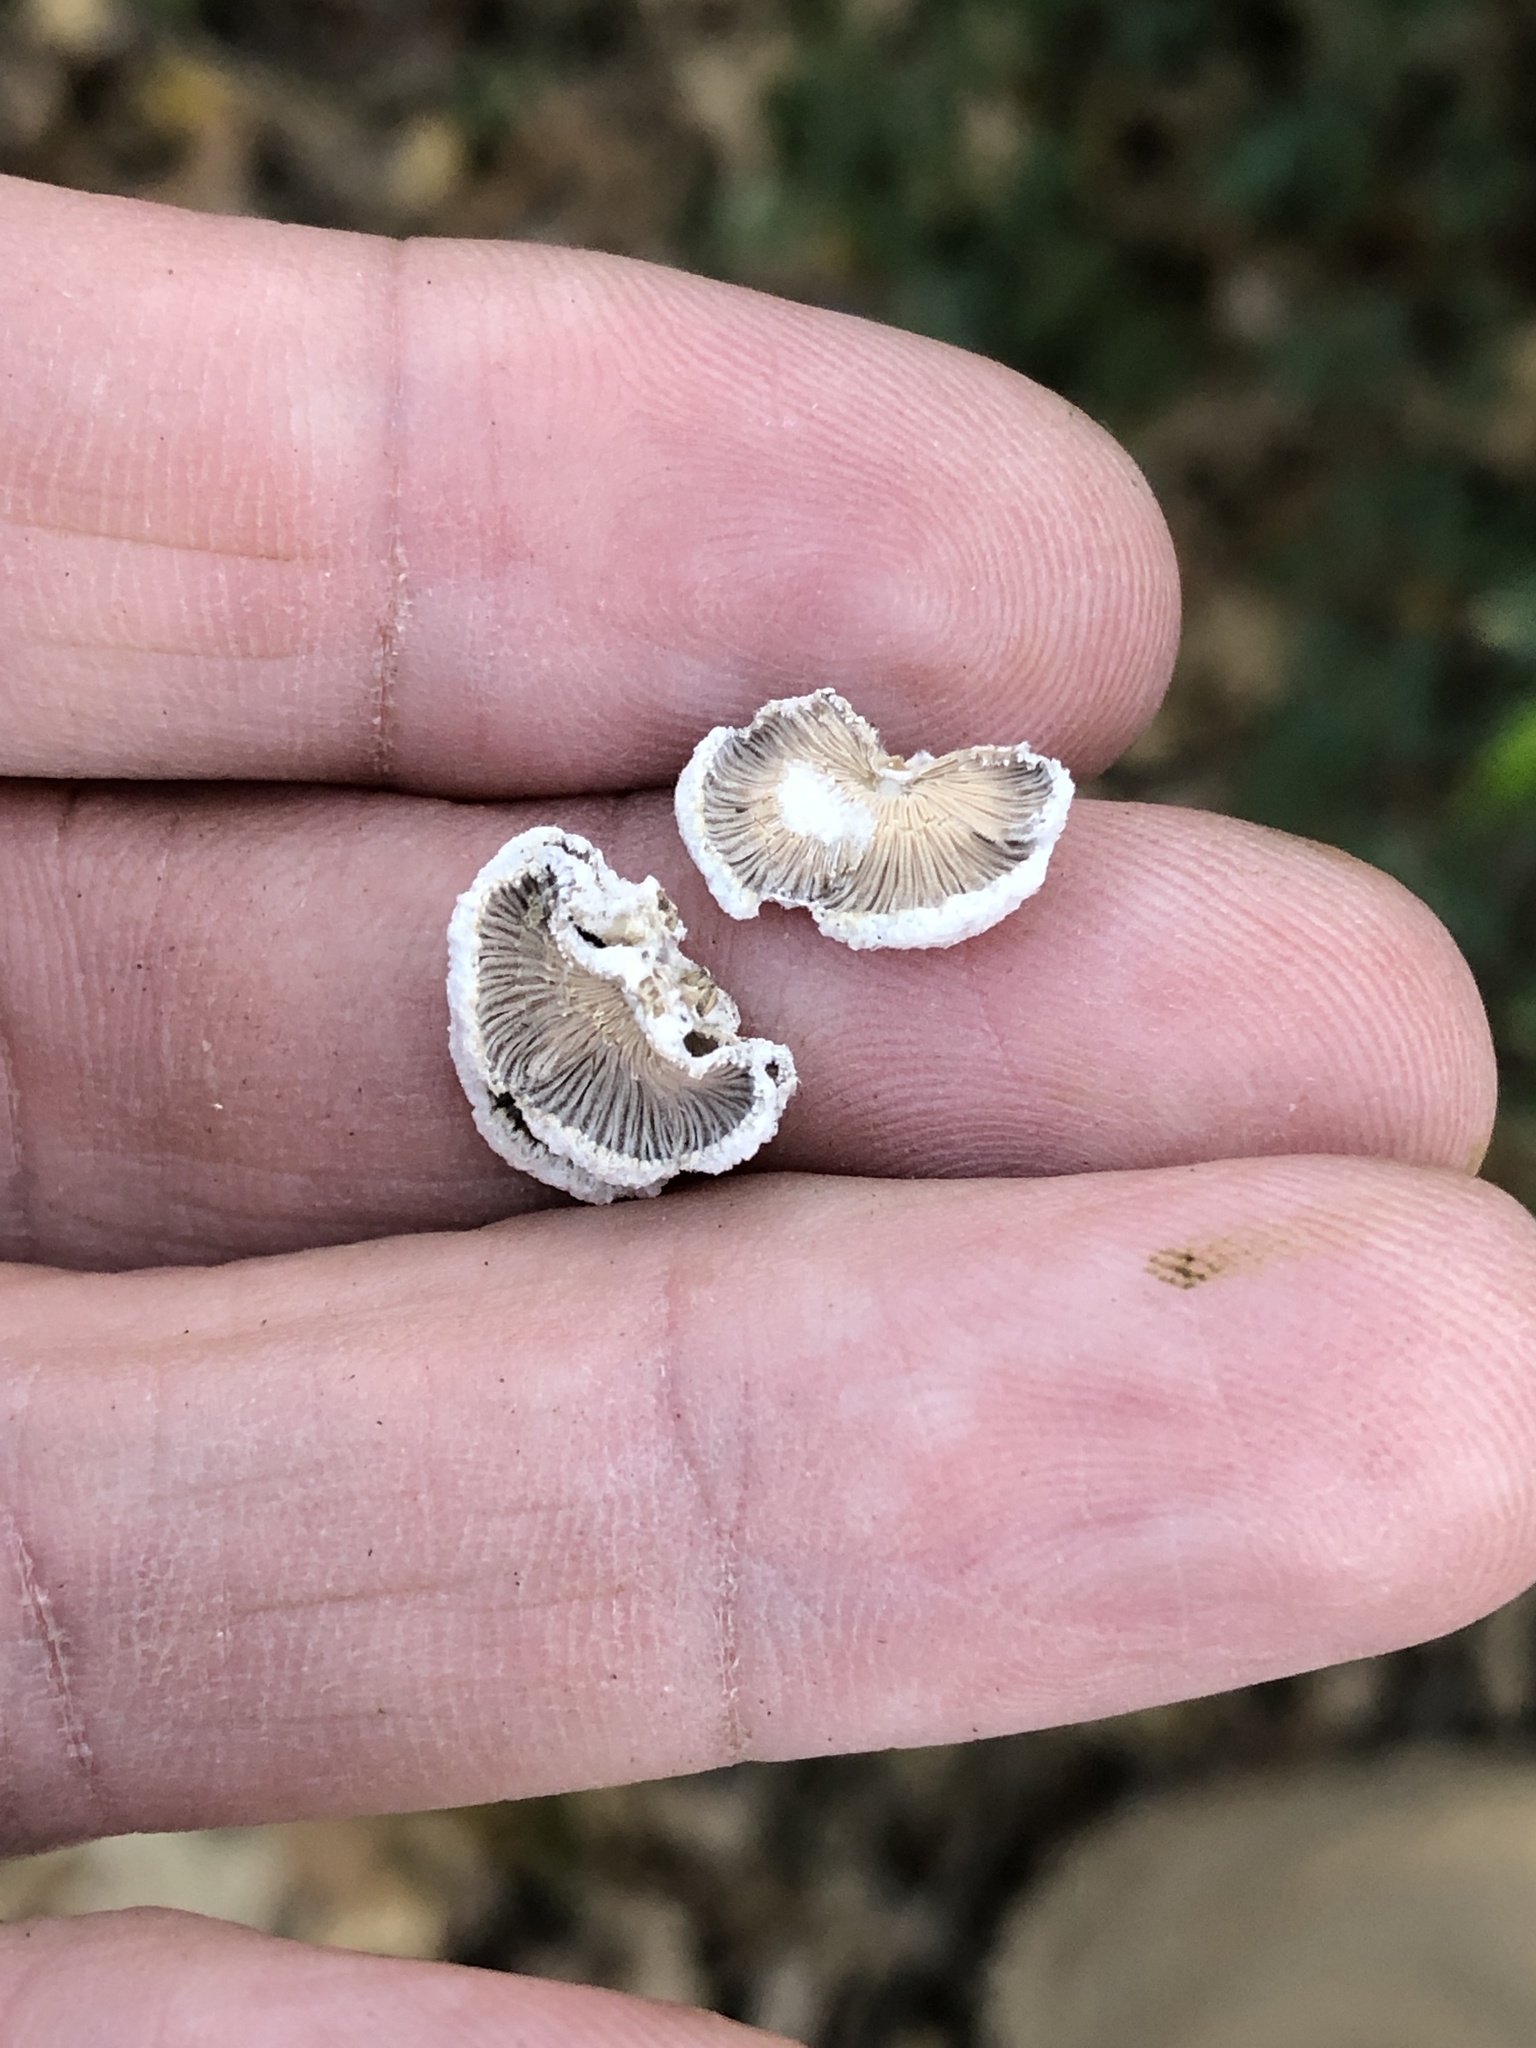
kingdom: Fungi
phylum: Basidiomycota
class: Agaricomycetes
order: Agaricales
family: Schizophyllaceae
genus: Schizophyllum
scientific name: Schizophyllum commune
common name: Common porecrust
